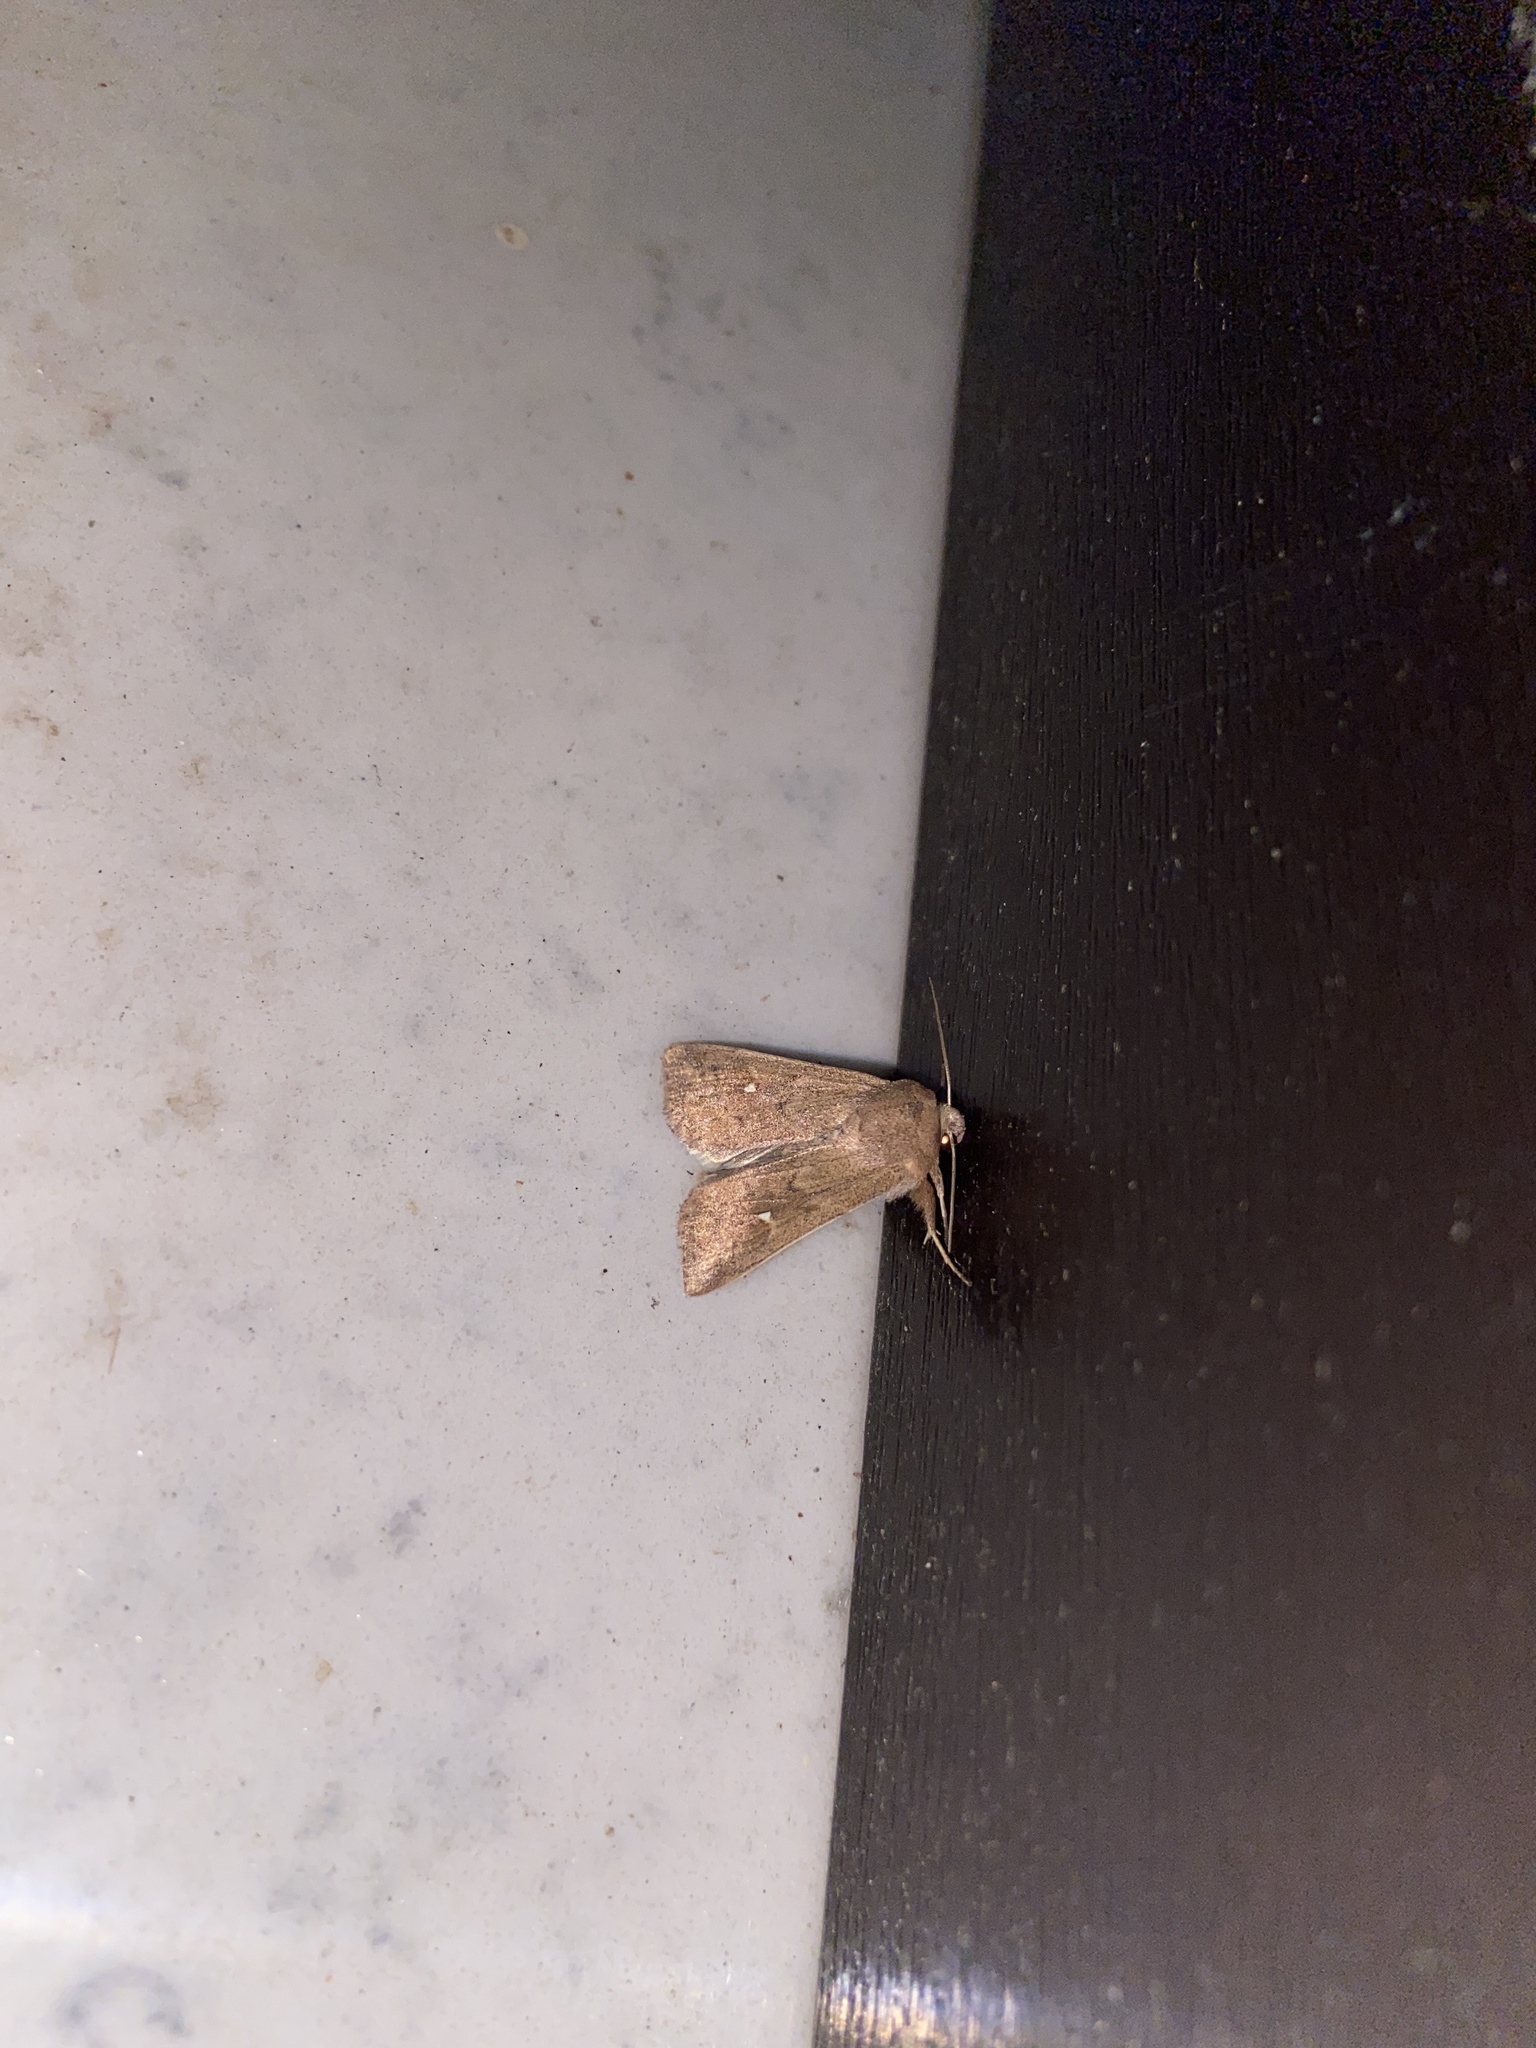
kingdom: Animalia
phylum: Arthropoda
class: Insecta
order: Lepidoptera
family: Noctuidae
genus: Mythimna
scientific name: Mythimna albipuncta
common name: White-point
